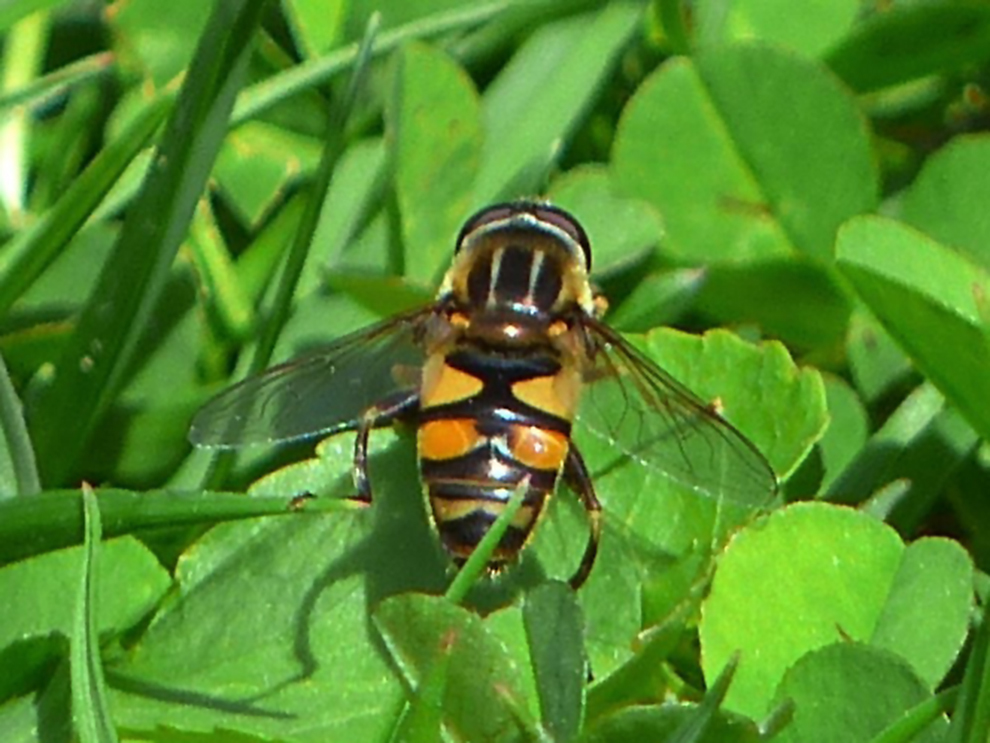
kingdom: Animalia
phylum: Arthropoda
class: Insecta
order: Diptera
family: Syrphidae
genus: Helophilus
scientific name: Helophilus fasciatus
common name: Narrow-headed marsh fly
